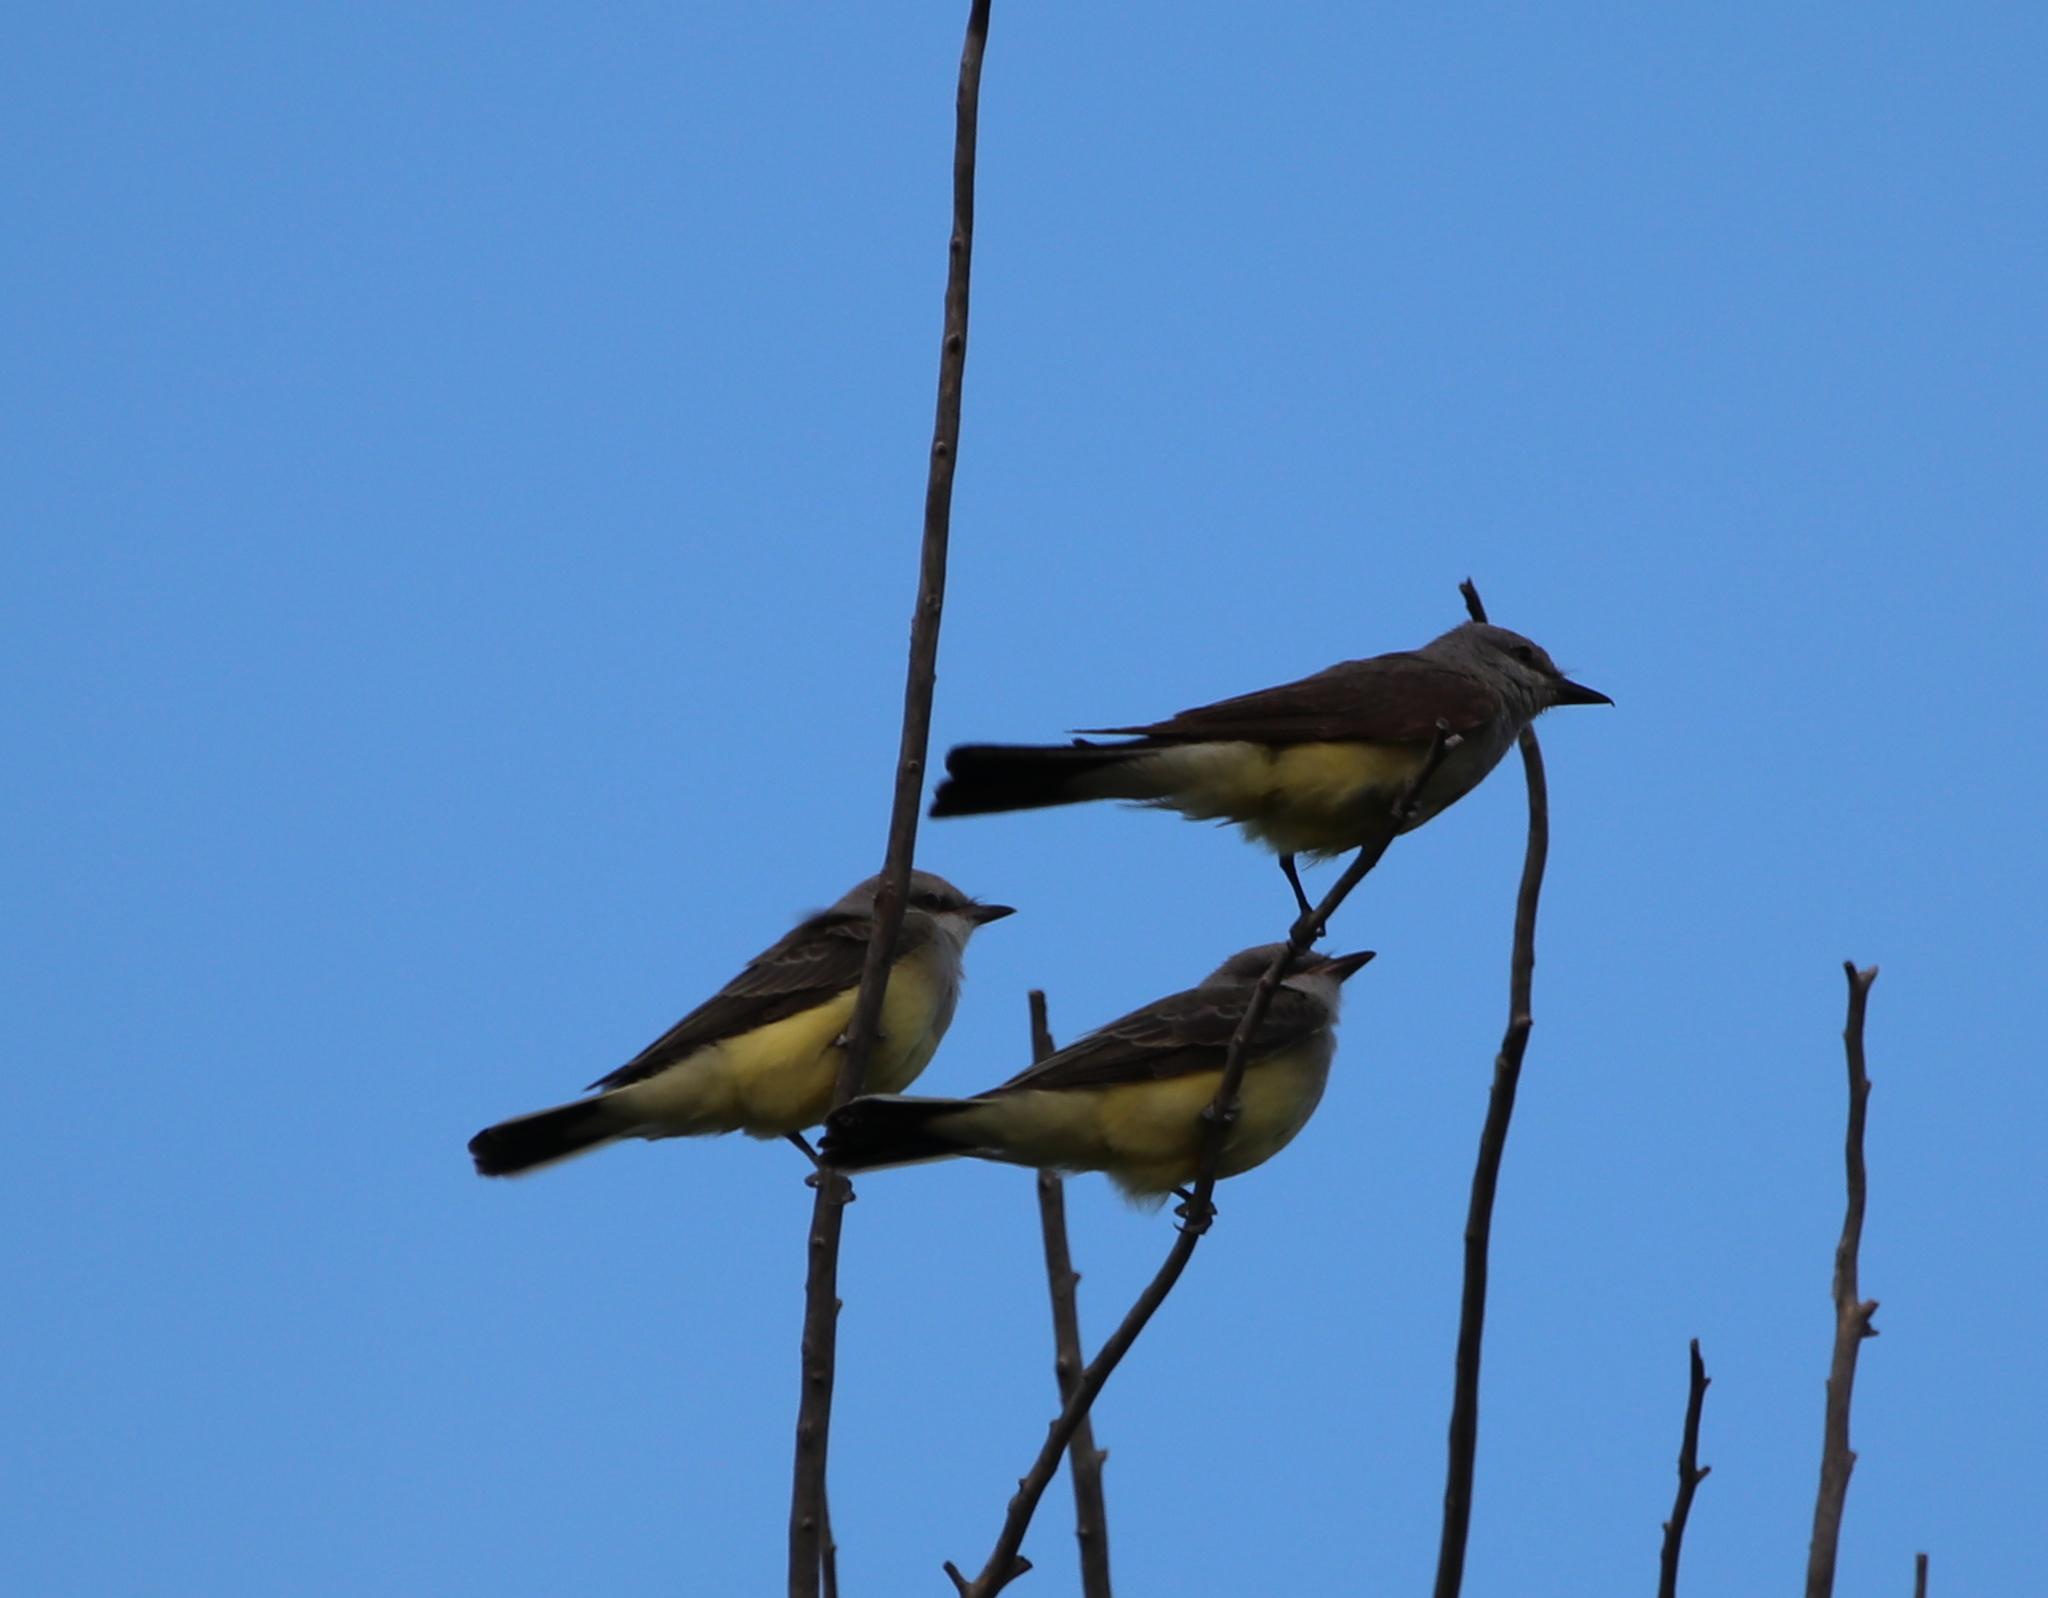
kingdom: Animalia
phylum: Chordata
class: Aves
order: Passeriformes
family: Tyrannidae
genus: Tyrannus
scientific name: Tyrannus verticalis
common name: Western kingbird
